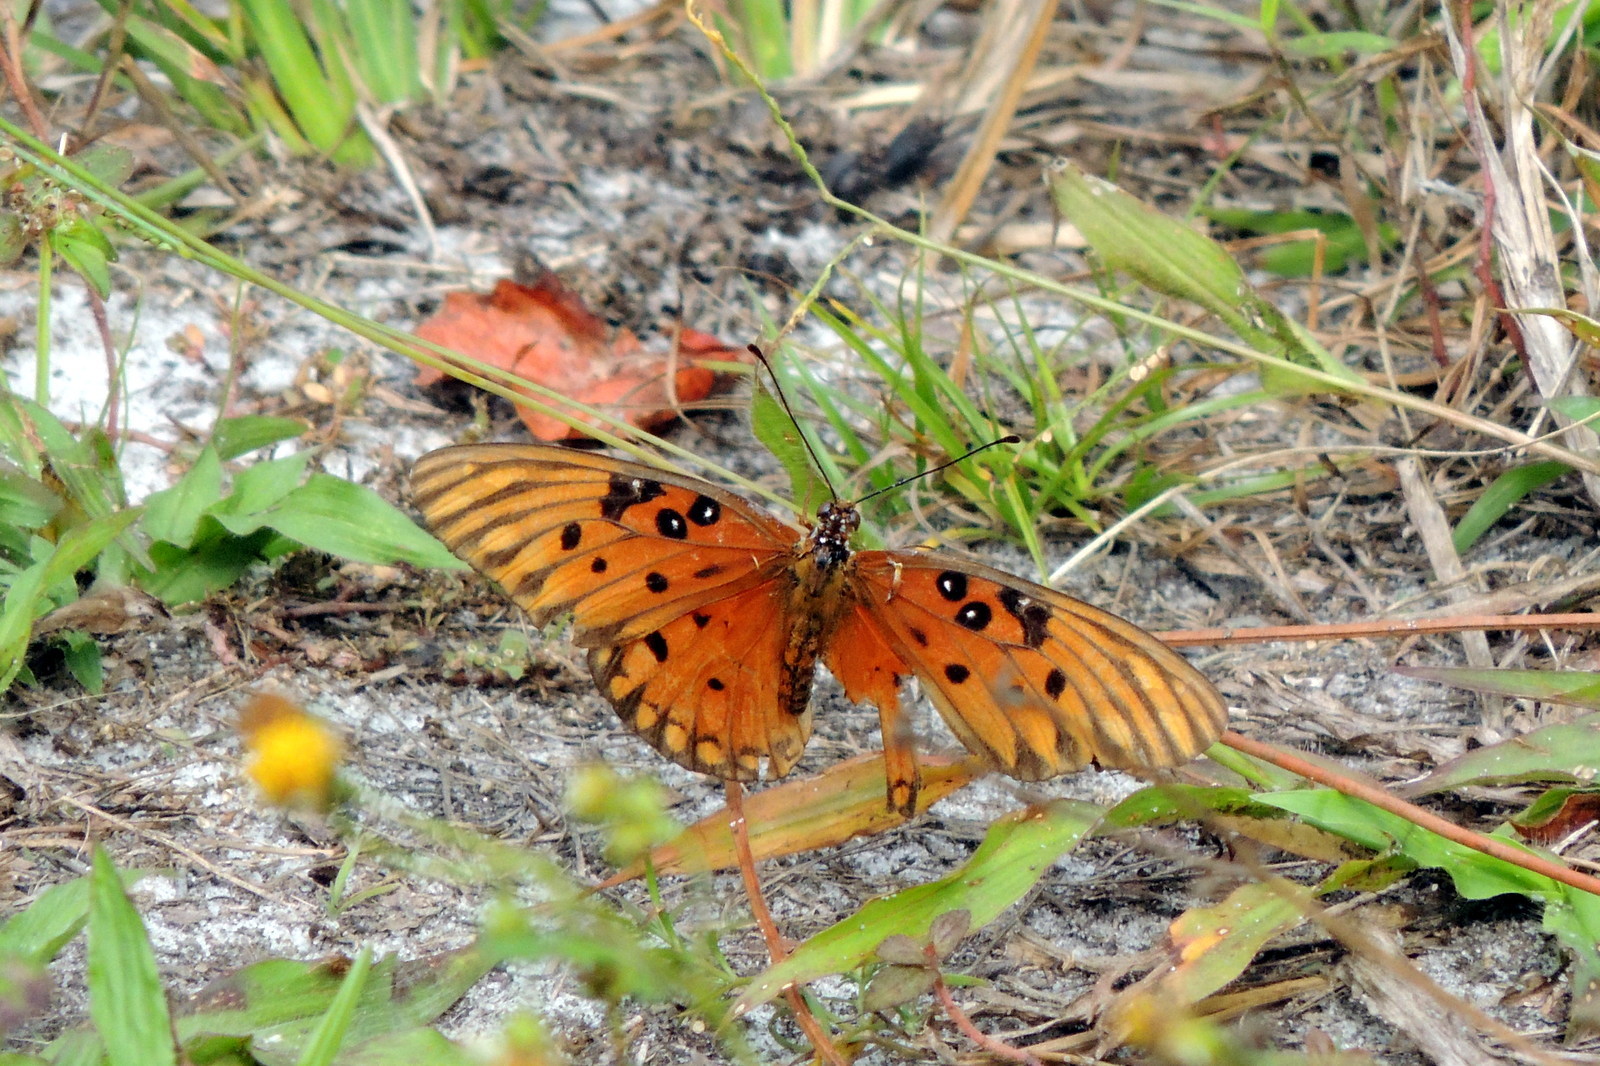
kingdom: Animalia
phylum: Arthropoda
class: Insecta
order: Lepidoptera
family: Nymphalidae
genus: Dione
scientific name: Dione vanillae
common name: Gulf fritillary
